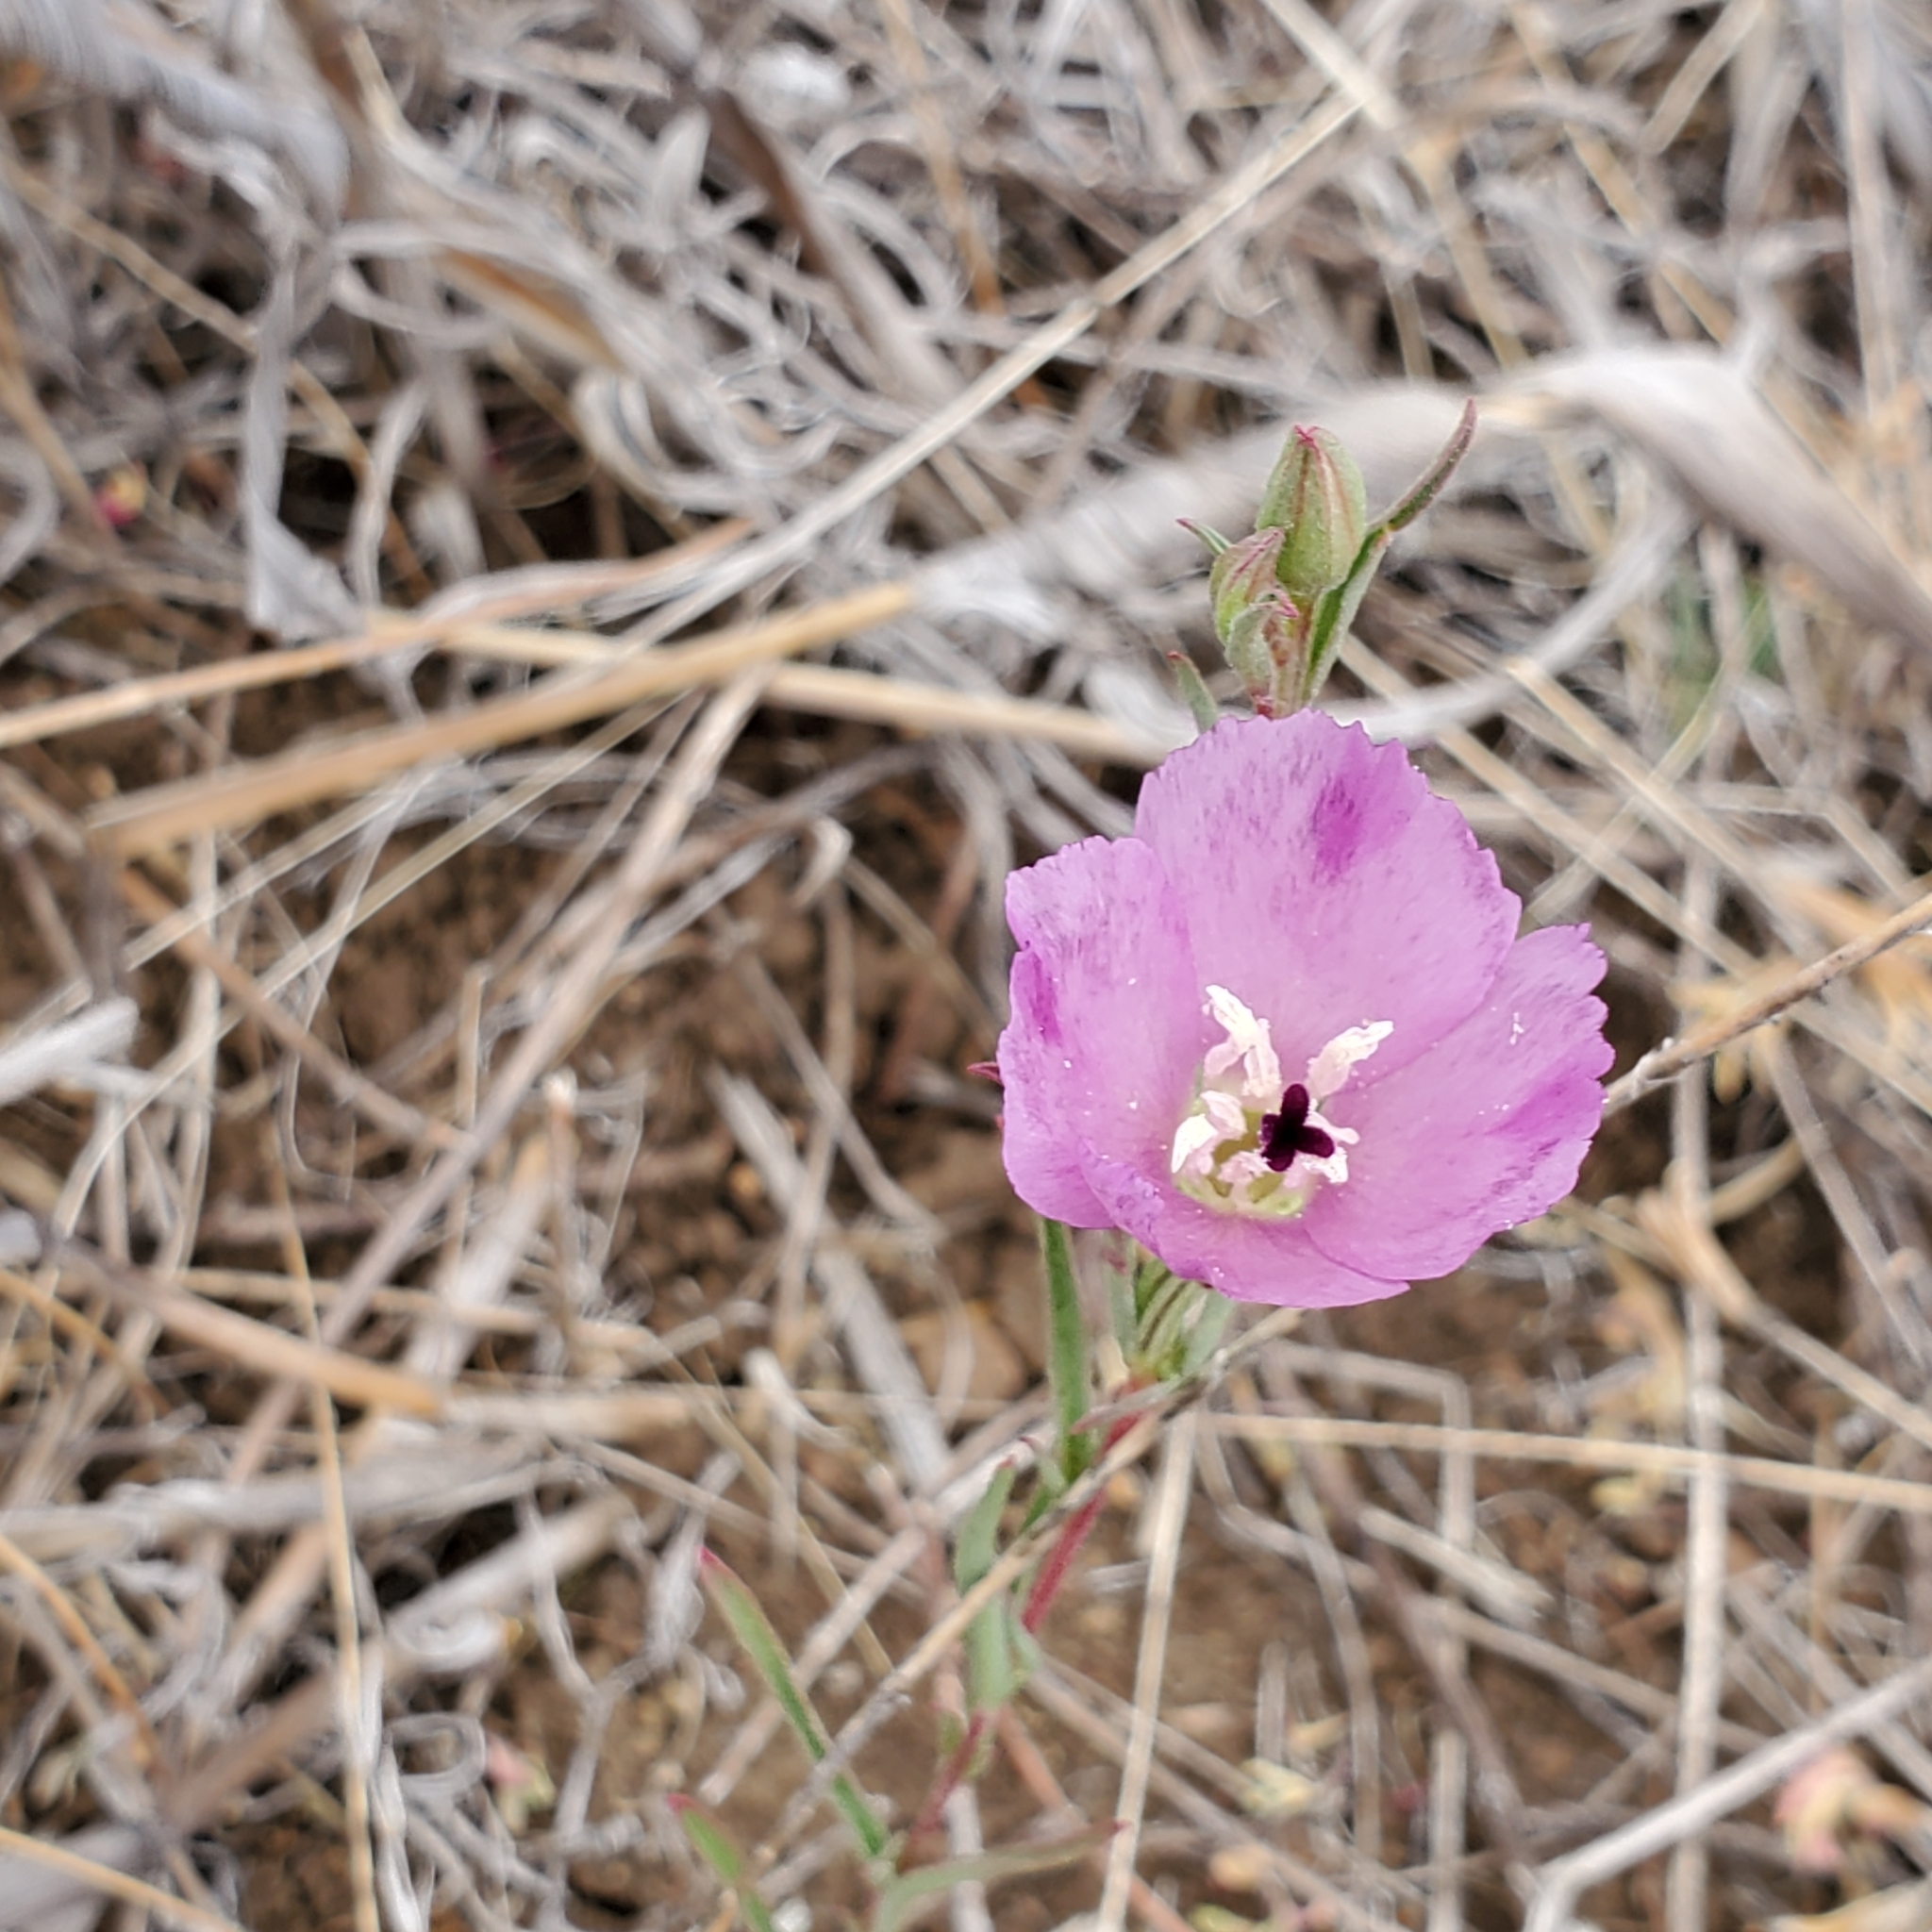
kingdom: Plantae
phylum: Tracheophyta
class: Magnoliopsida
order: Myrtales
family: Onagraceae
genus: Clarkia
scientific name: Clarkia purpurea
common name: Purple clarkia
